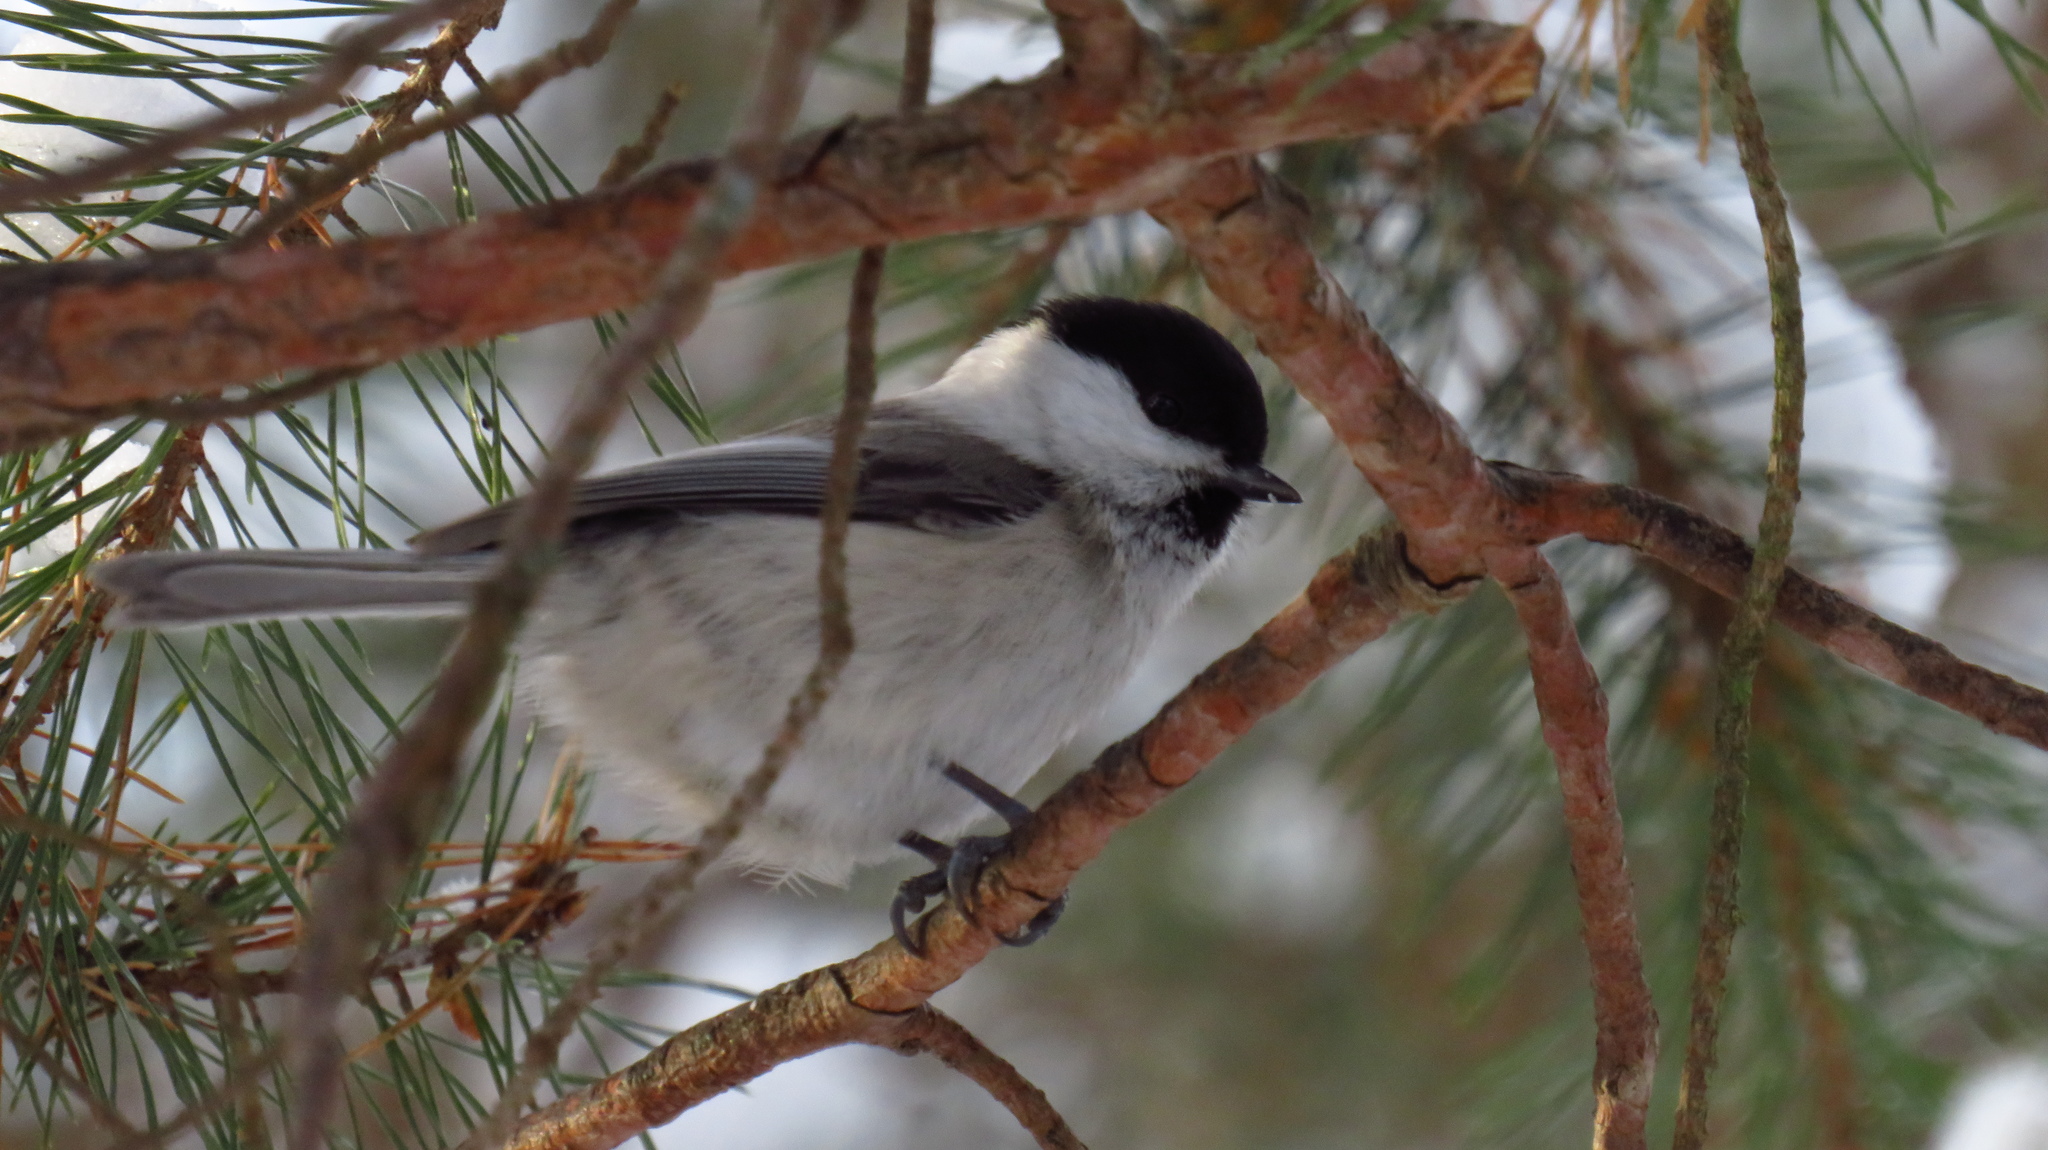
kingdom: Animalia
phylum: Chordata
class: Aves
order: Passeriformes
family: Paridae
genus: Poecile
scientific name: Poecile montanus
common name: Willow tit
